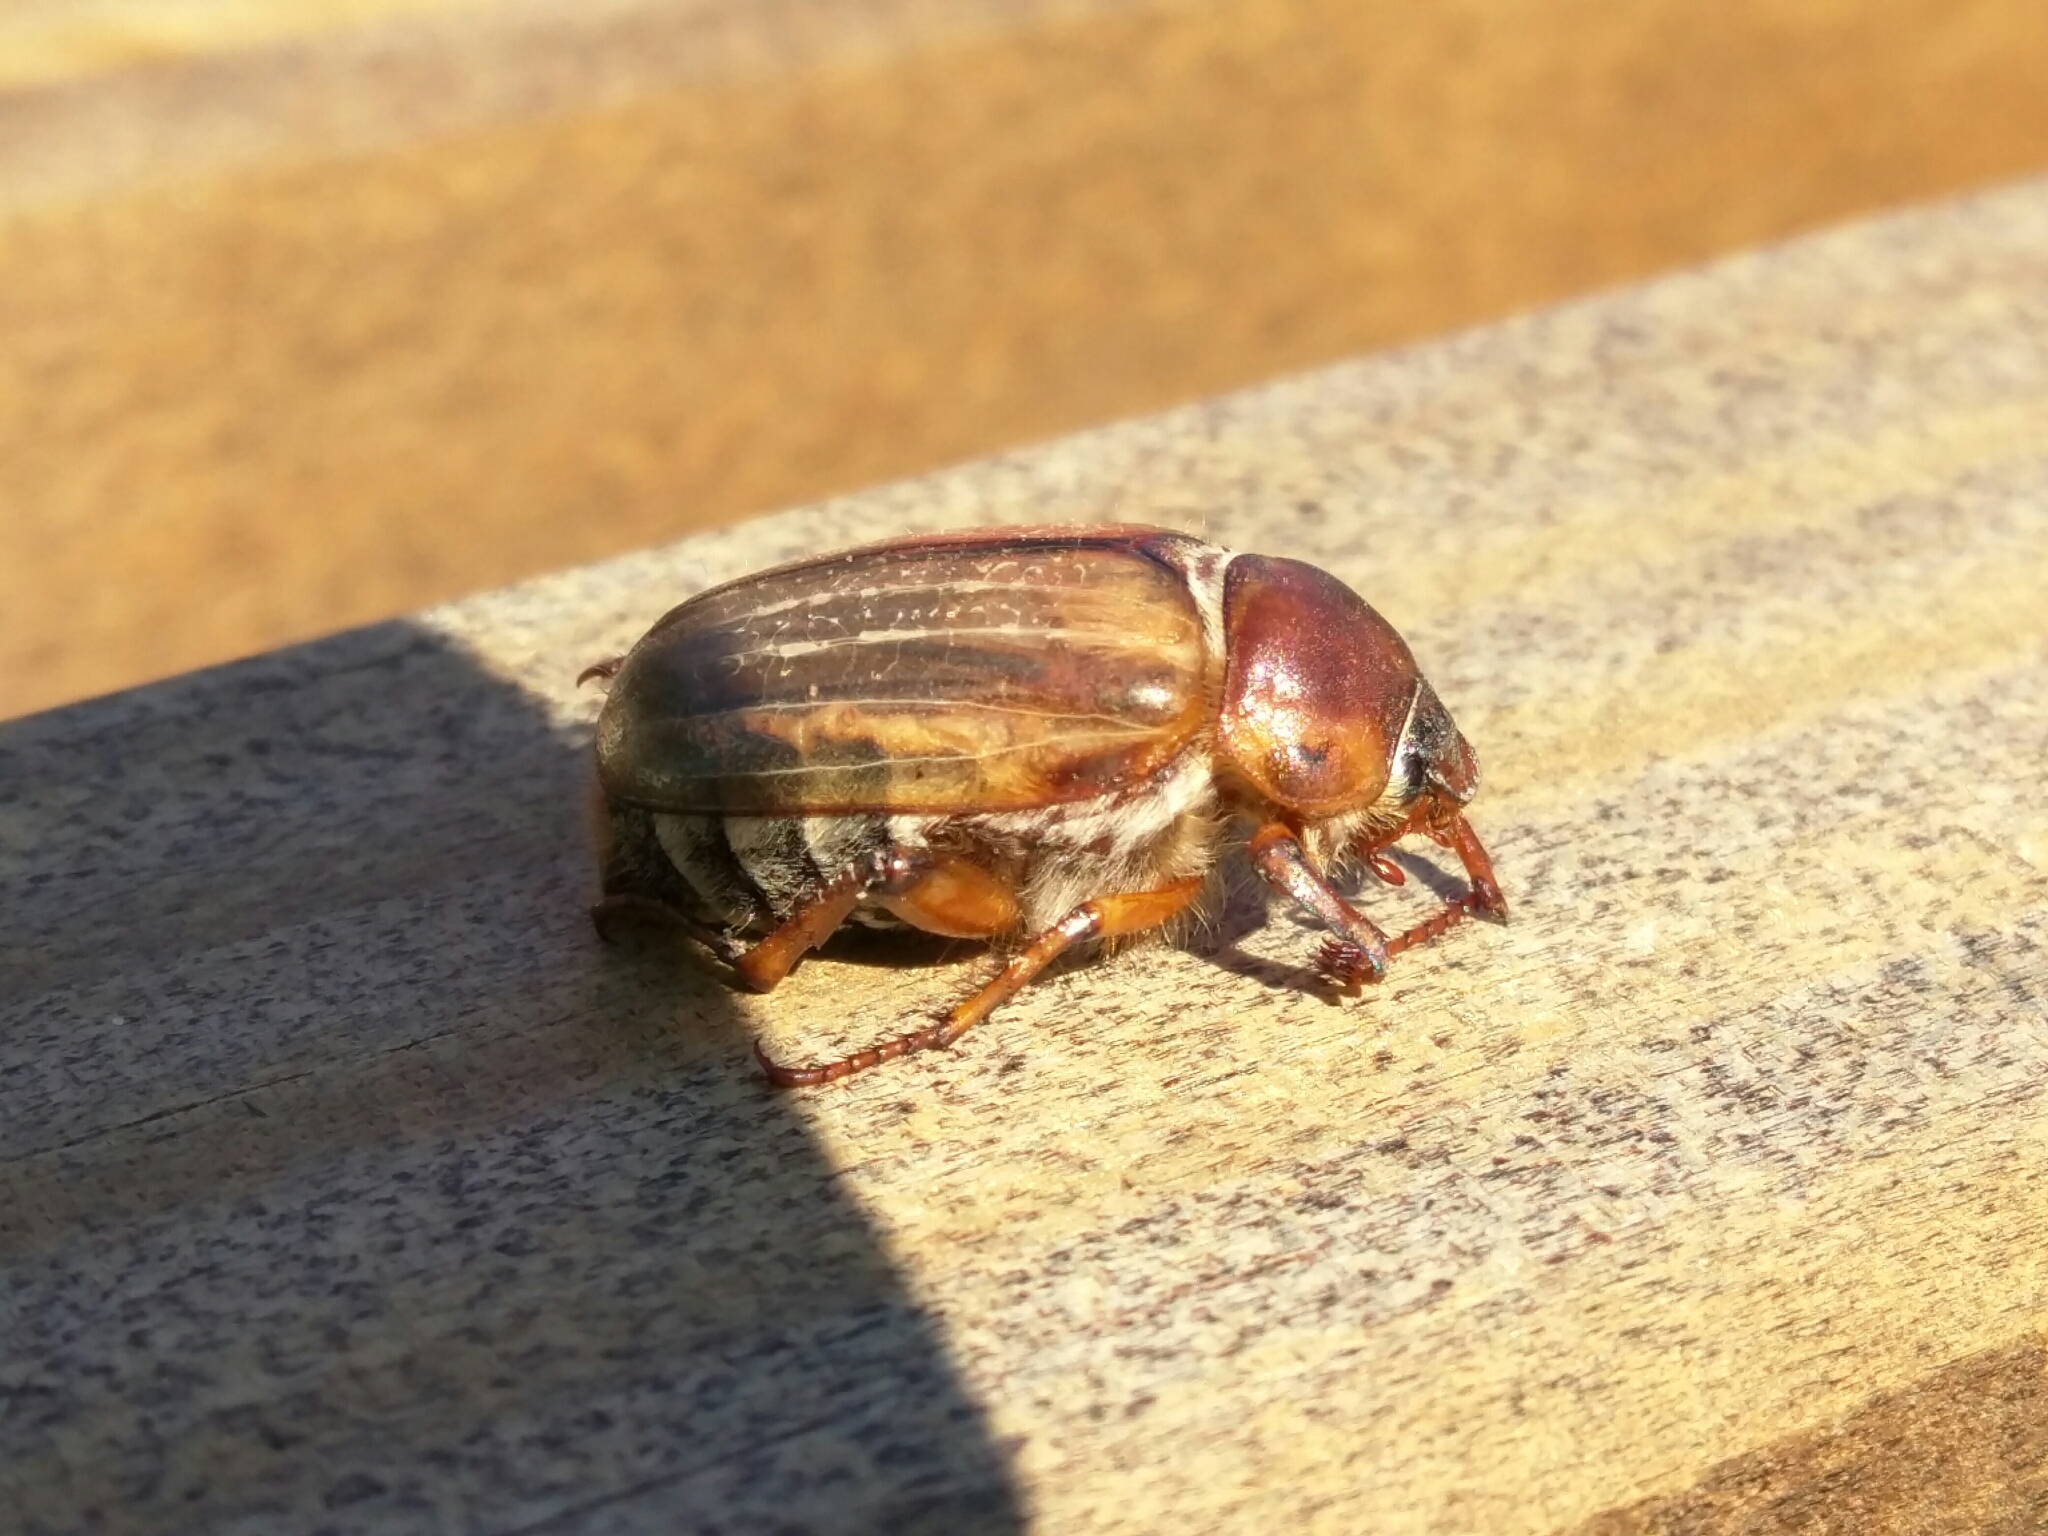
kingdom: Animalia
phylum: Arthropoda
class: Insecta
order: Coleoptera
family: Scarabaeidae
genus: Amphimallon
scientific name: Amphimallon solstitiale
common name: Summer chafer
